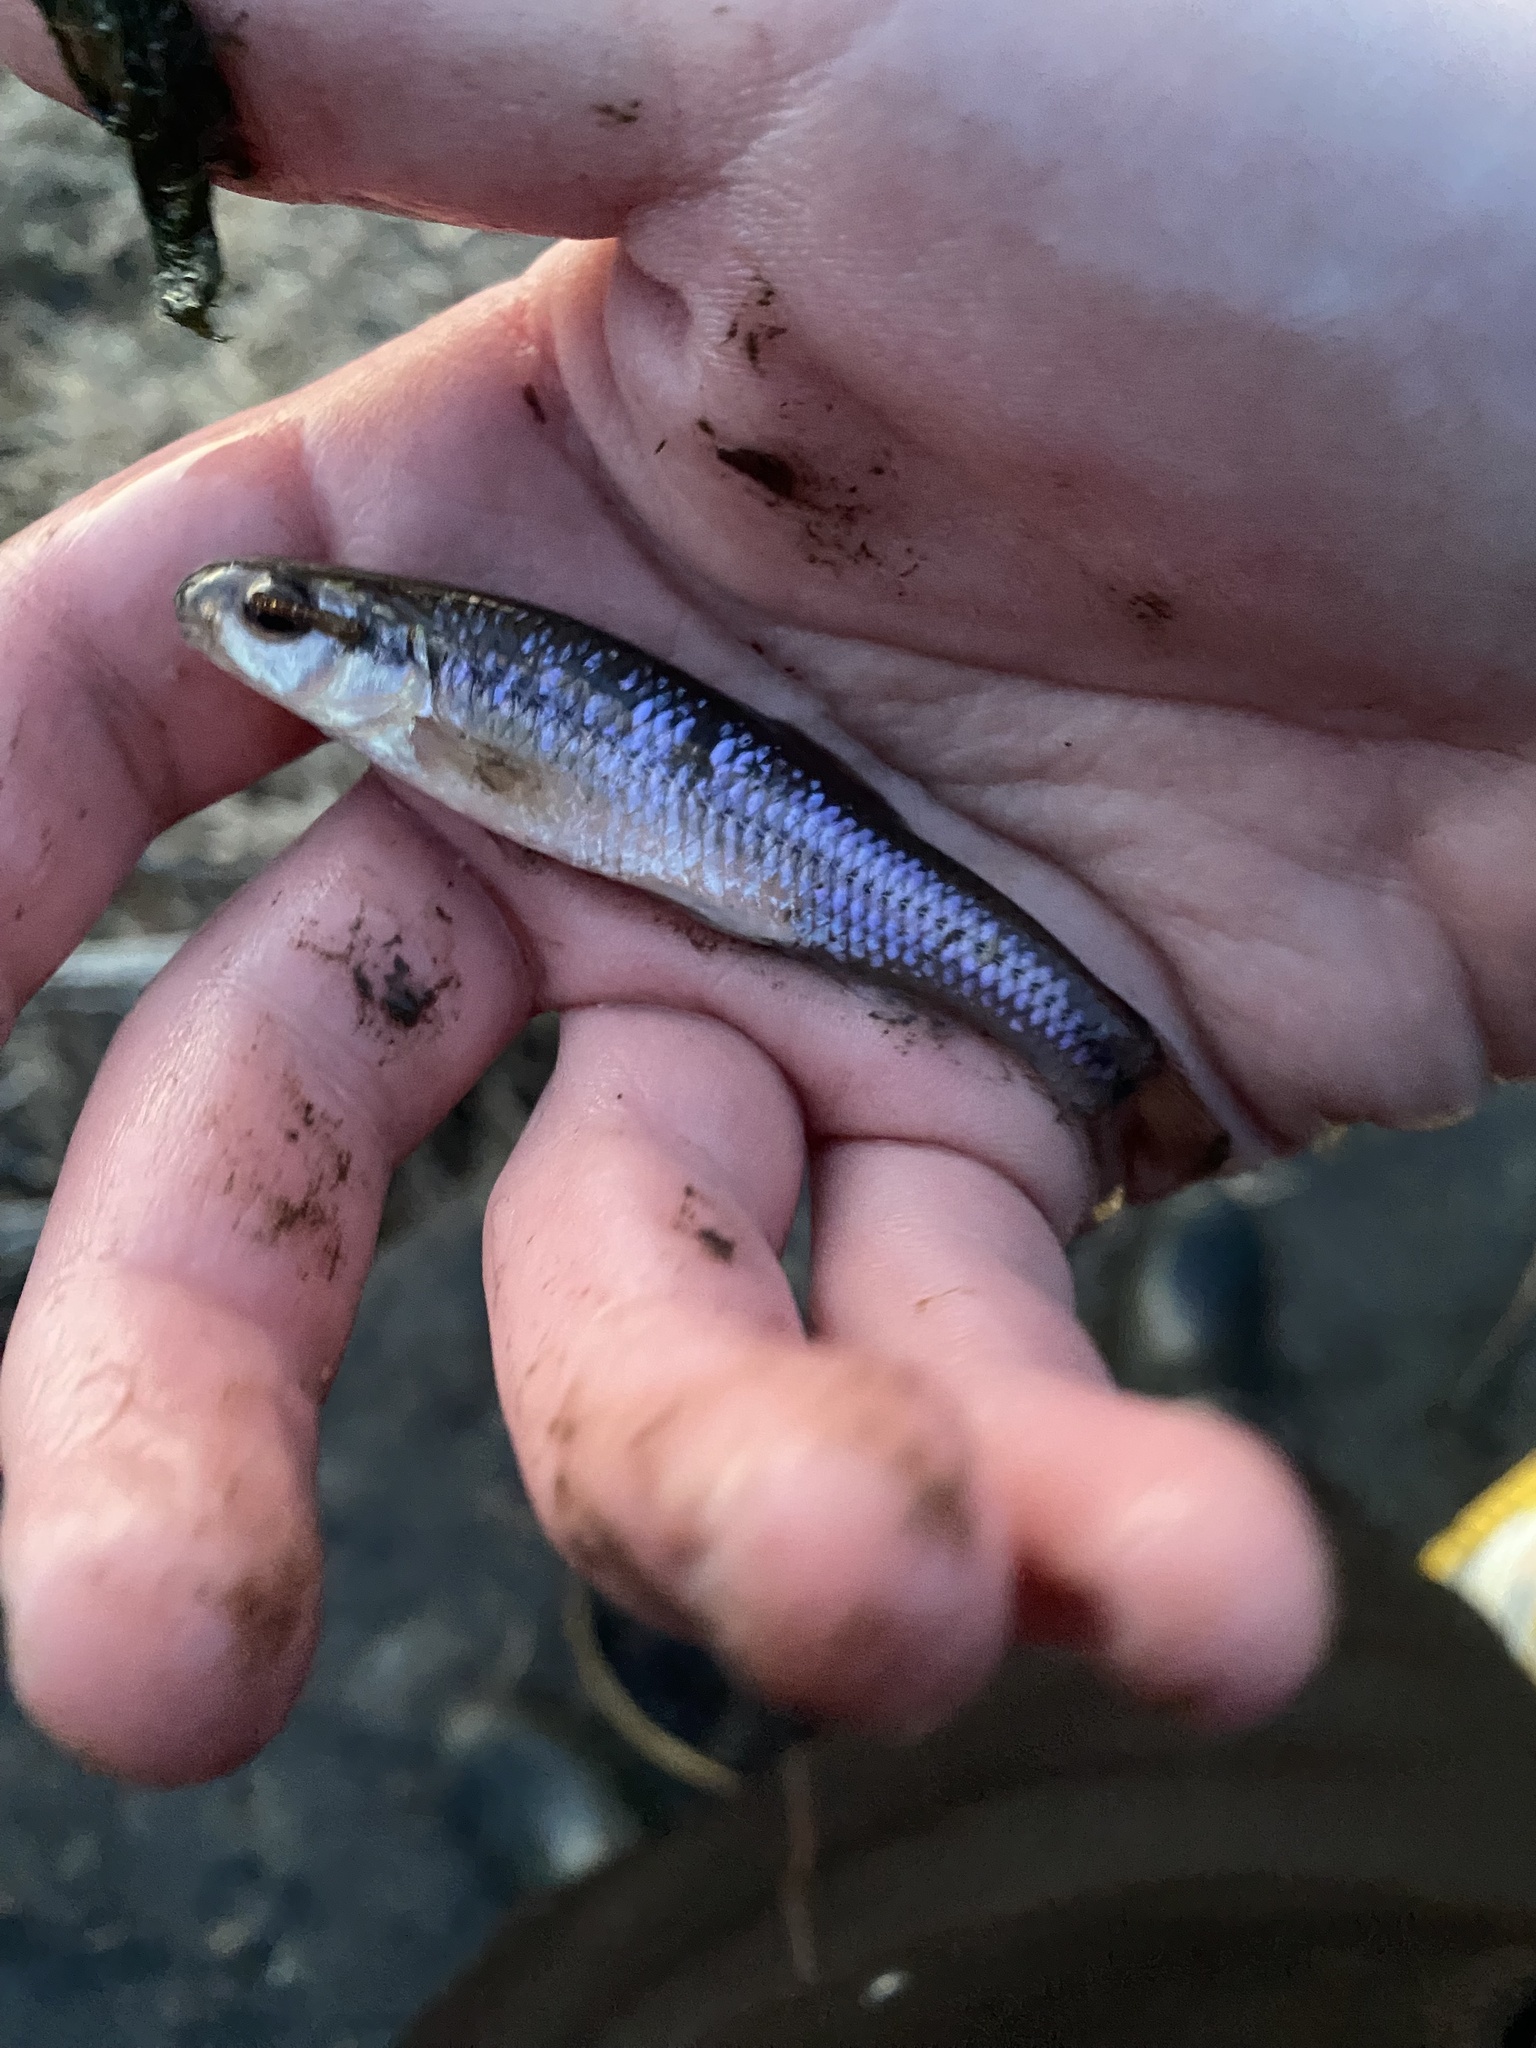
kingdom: Animalia
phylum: Chordata
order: Cypriniformes
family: Cyprinidae
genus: Pimephales
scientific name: Pimephales notatus
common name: Bluntnose minnow
